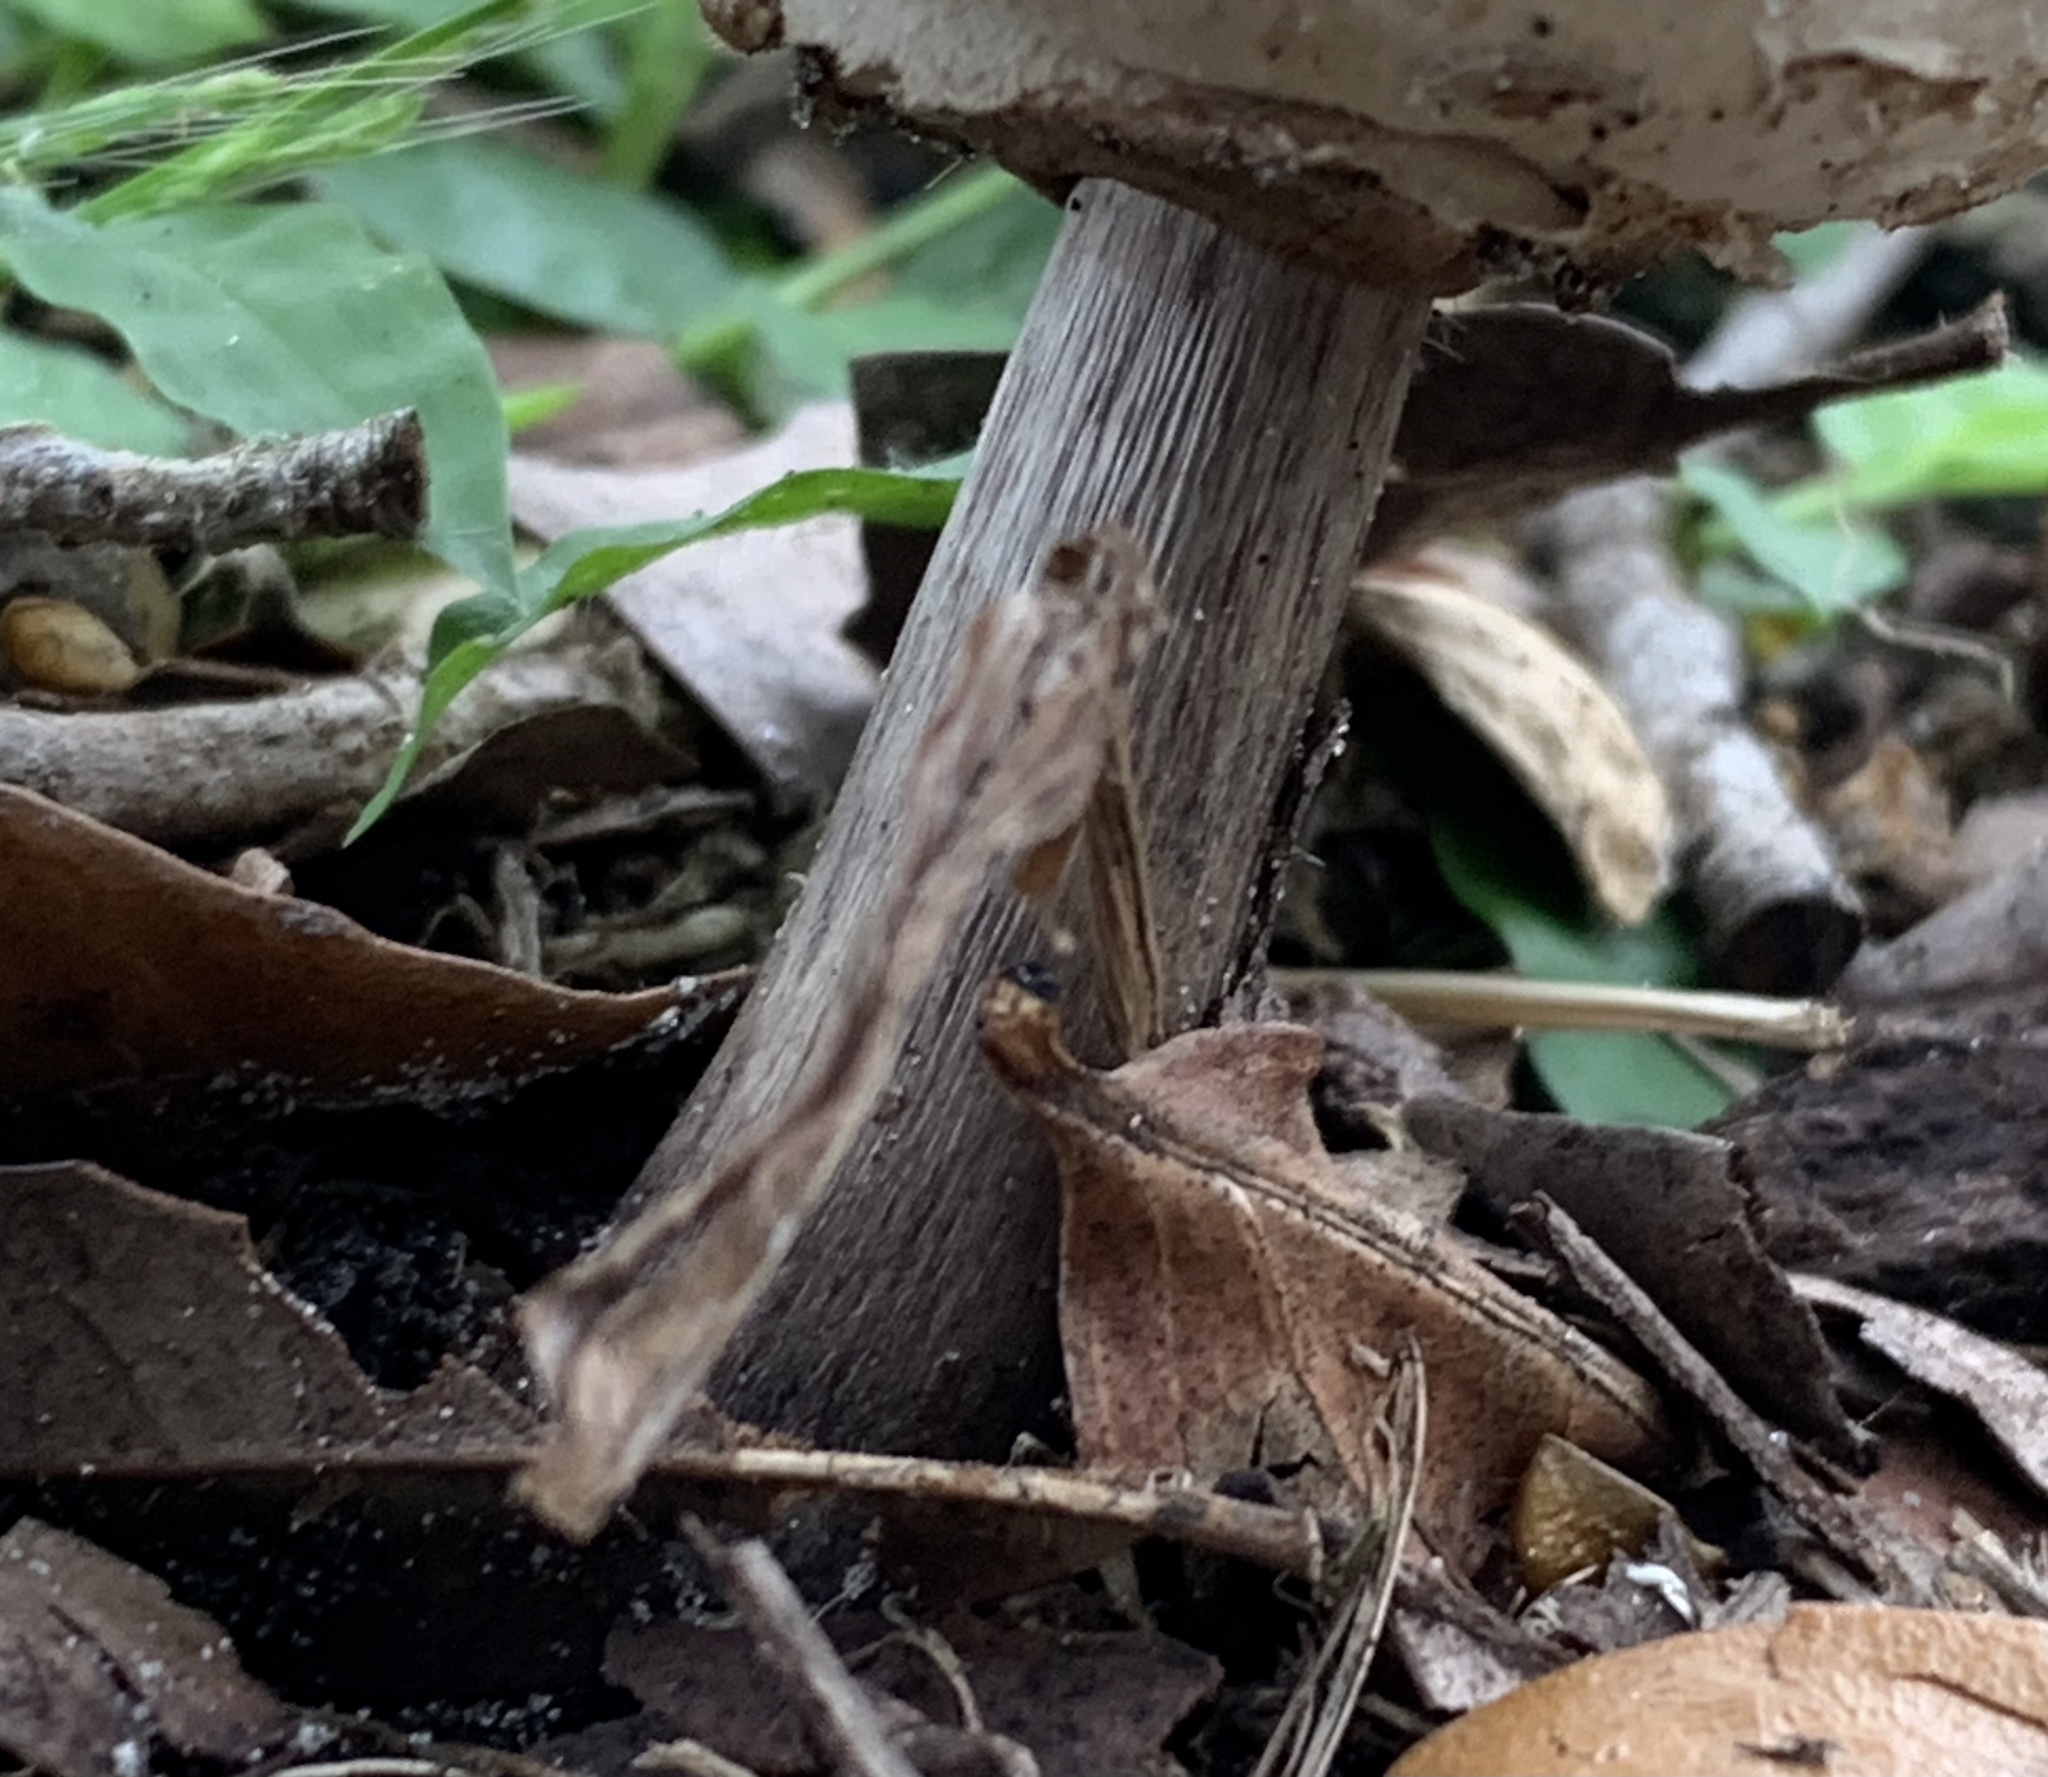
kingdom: Fungi
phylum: Basidiomycota
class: Agaricomycetes
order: Agaricales
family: Agaricaceae
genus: Chlorophyllum
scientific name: Chlorophyllum molybdites
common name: False parasol
